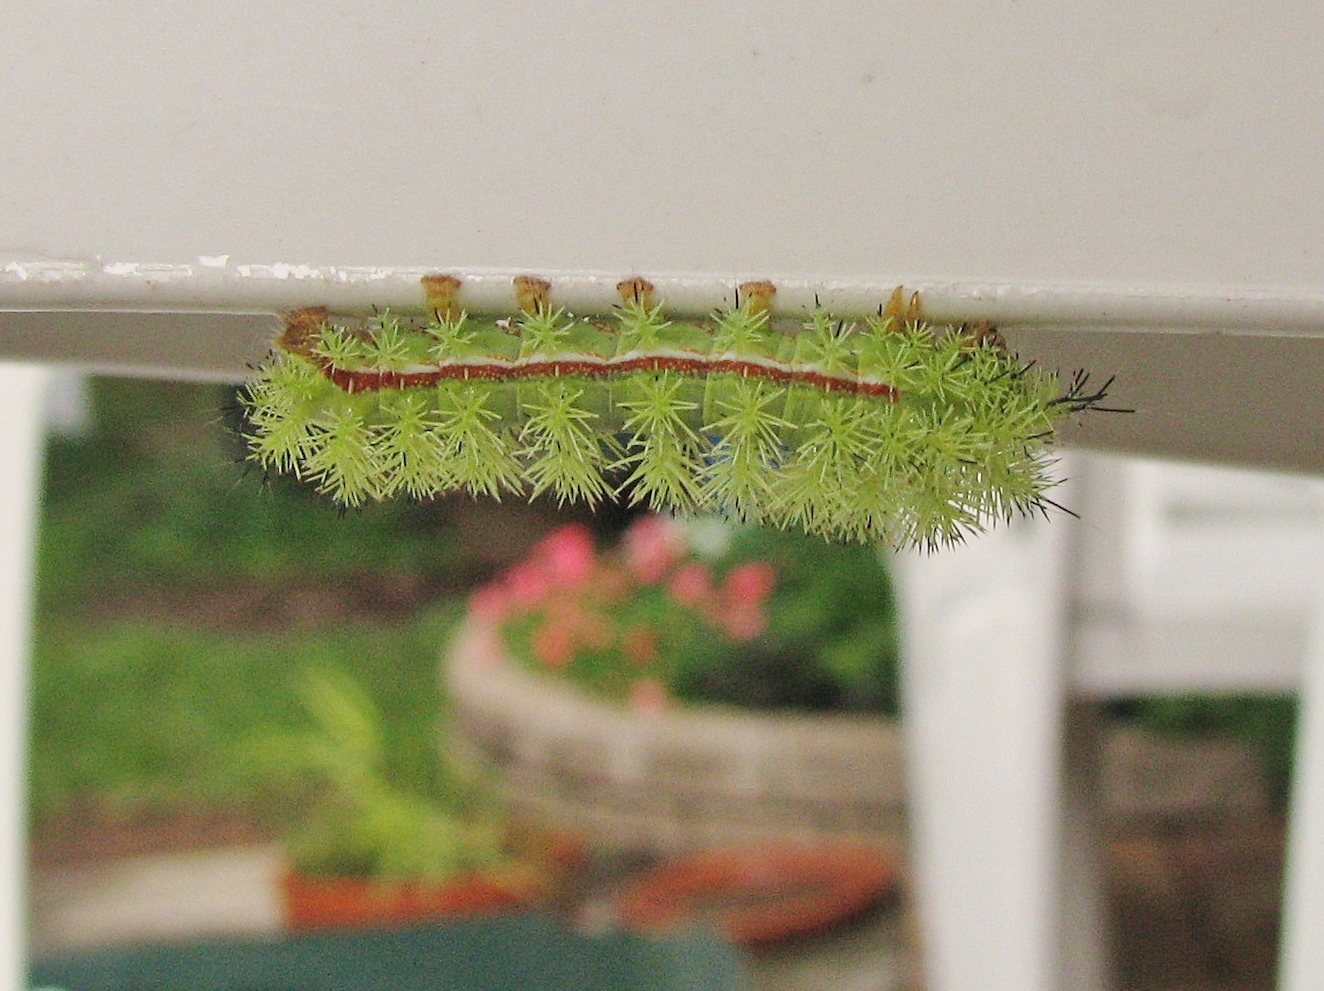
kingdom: Animalia
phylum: Arthropoda
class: Insecta
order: Lepidoptera
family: Saturniidae
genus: Automeris
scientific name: Automeris io
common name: Io moth
